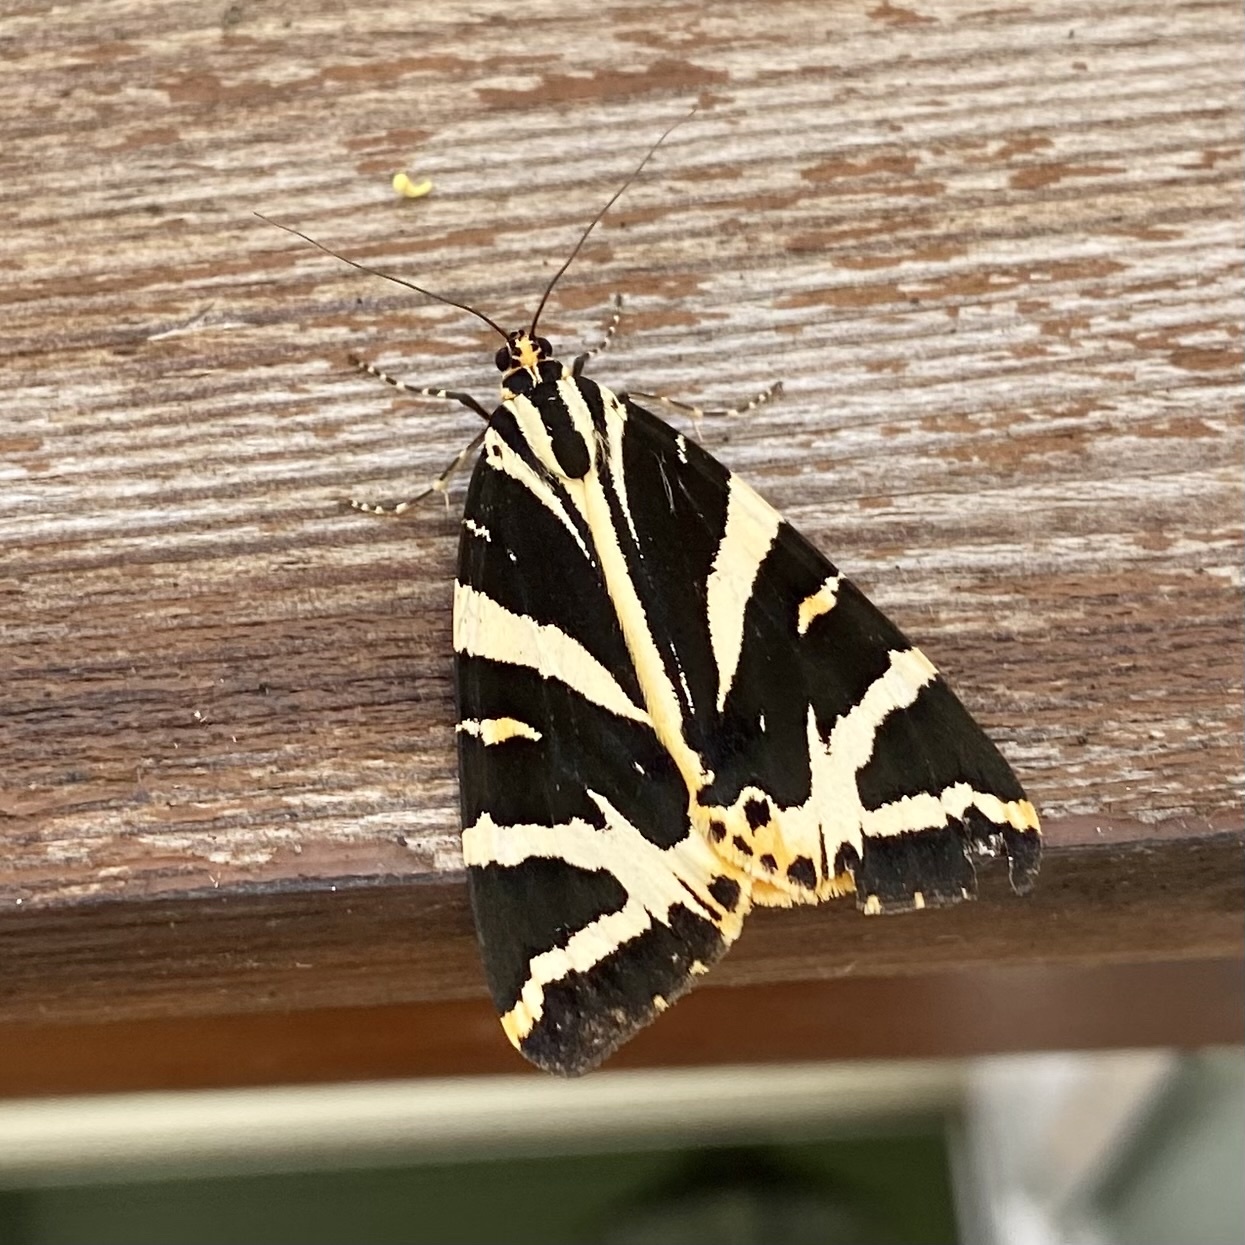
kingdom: Animalia
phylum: Arthropoda
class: Insecta
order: Lepidoptera
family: Erebidae
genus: Euplagia
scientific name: Euplagia quadripunctaria
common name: Jersey tiger
